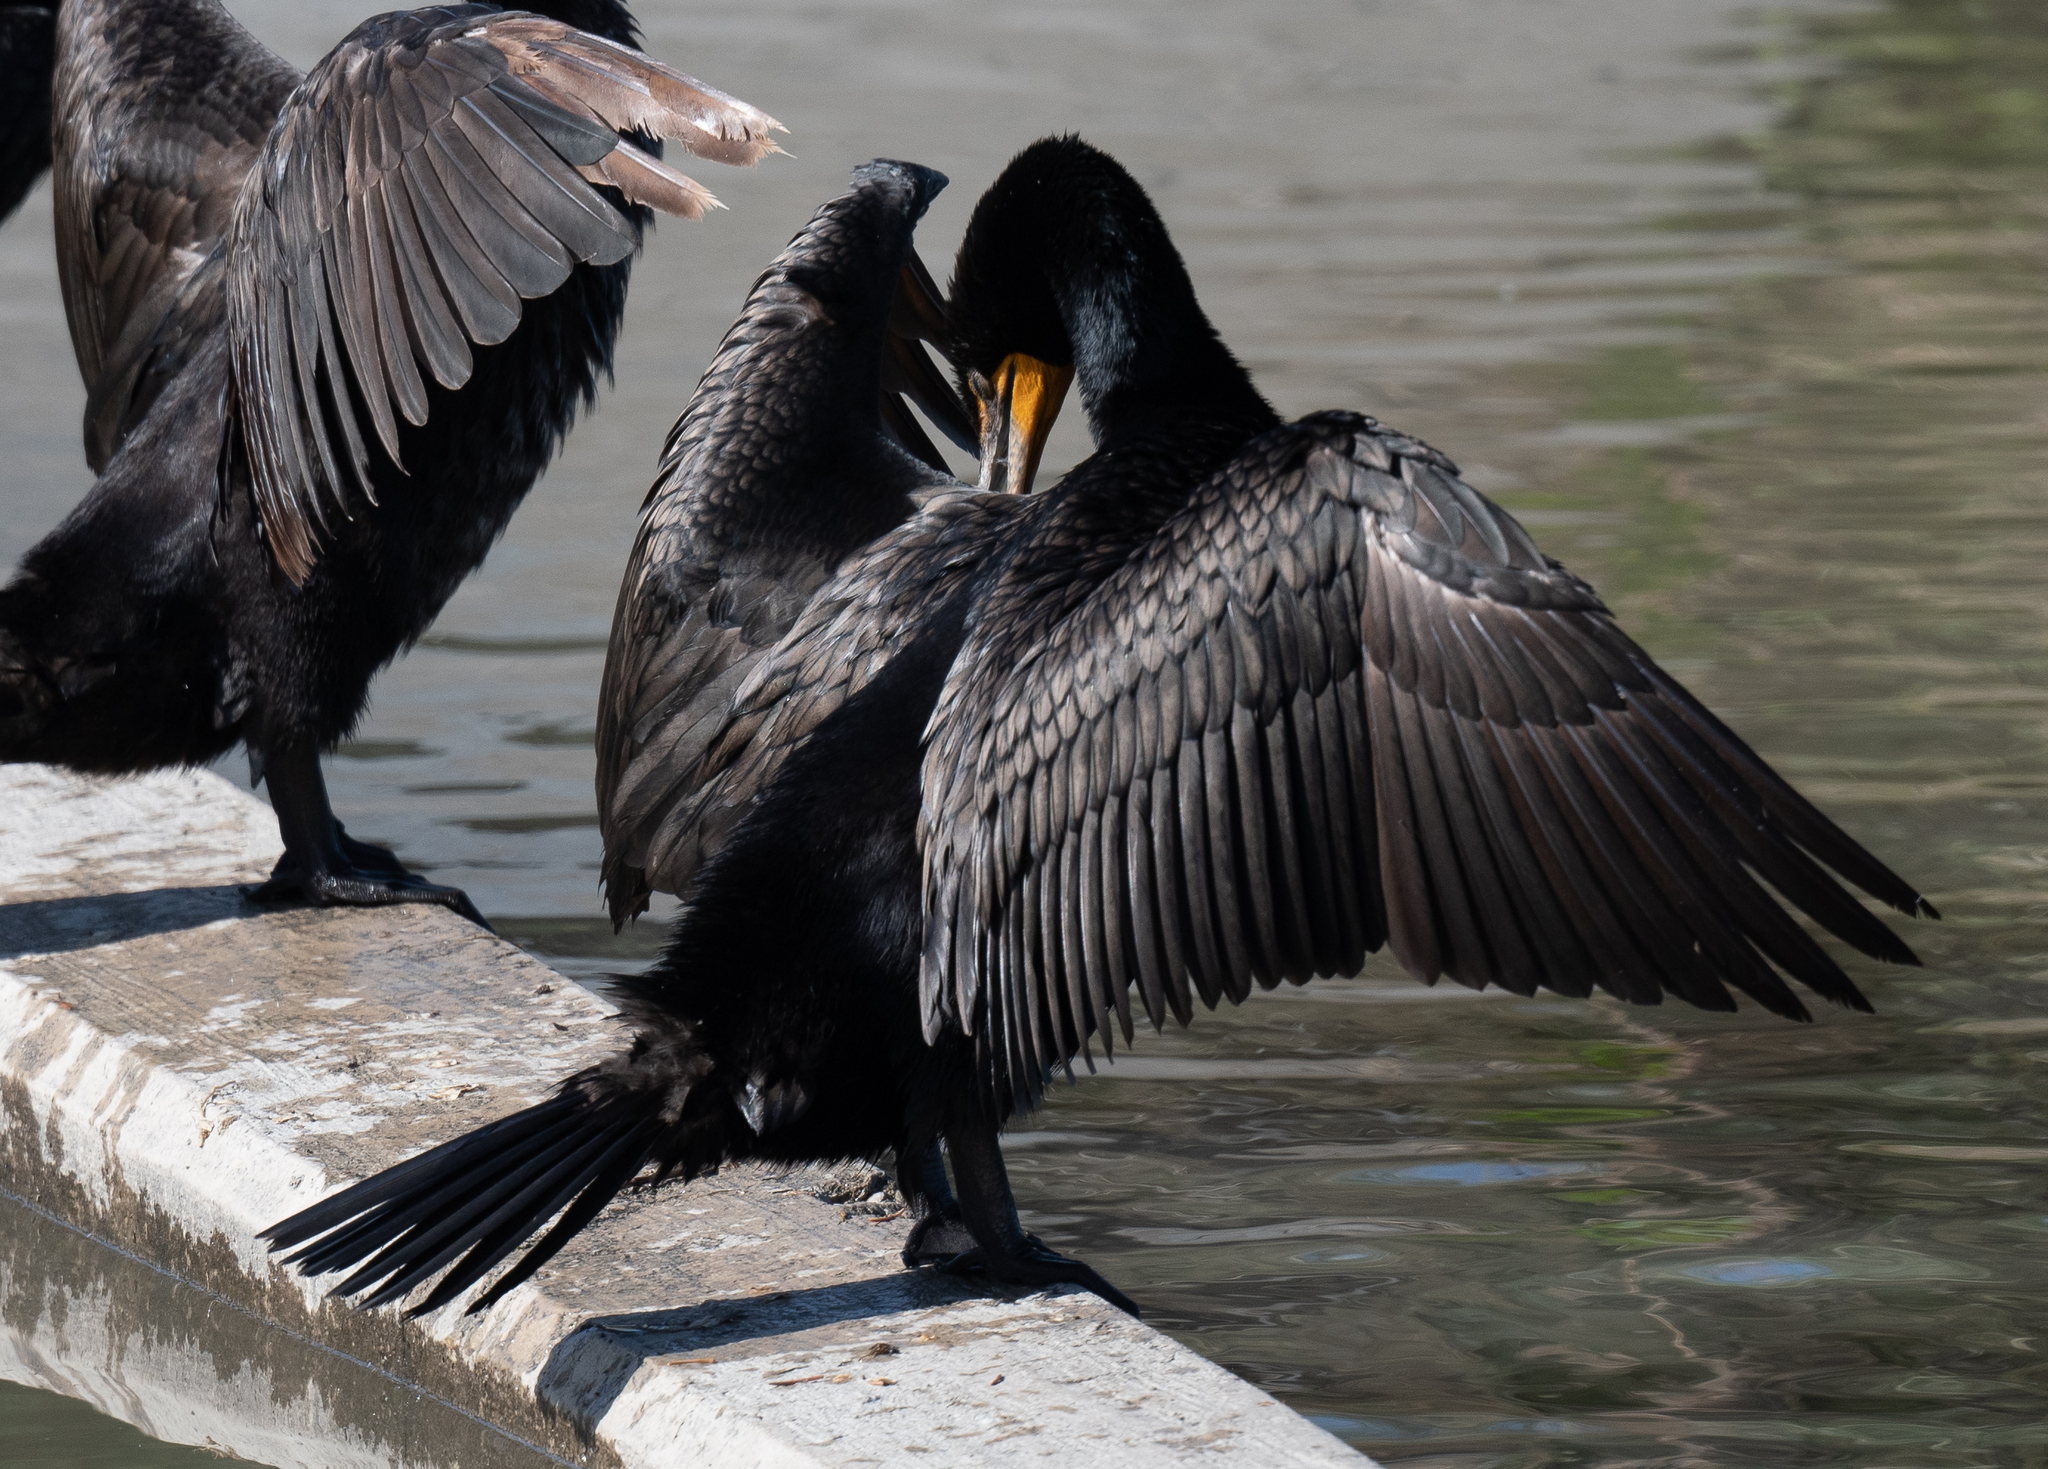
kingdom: Animalia
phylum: Chordata
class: Aves
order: Suliformes
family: Phalacrocoracidae
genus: Phalacrocorax
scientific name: Phalacrocorax auritus
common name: Double-crested cormorant
